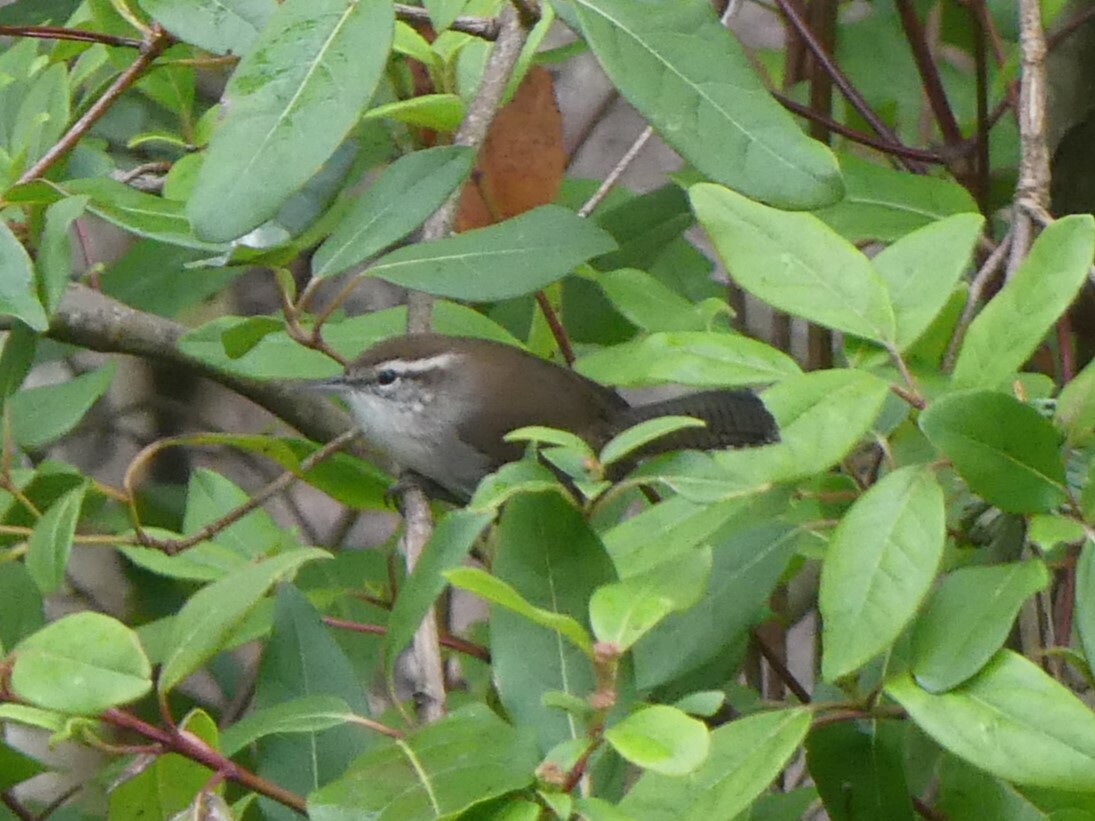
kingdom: Animalia
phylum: Chordata
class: Aves
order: Passeriformes
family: Troglodytidae
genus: Thryomanes
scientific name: Thryomanes bewickii
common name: Bewick's wren
